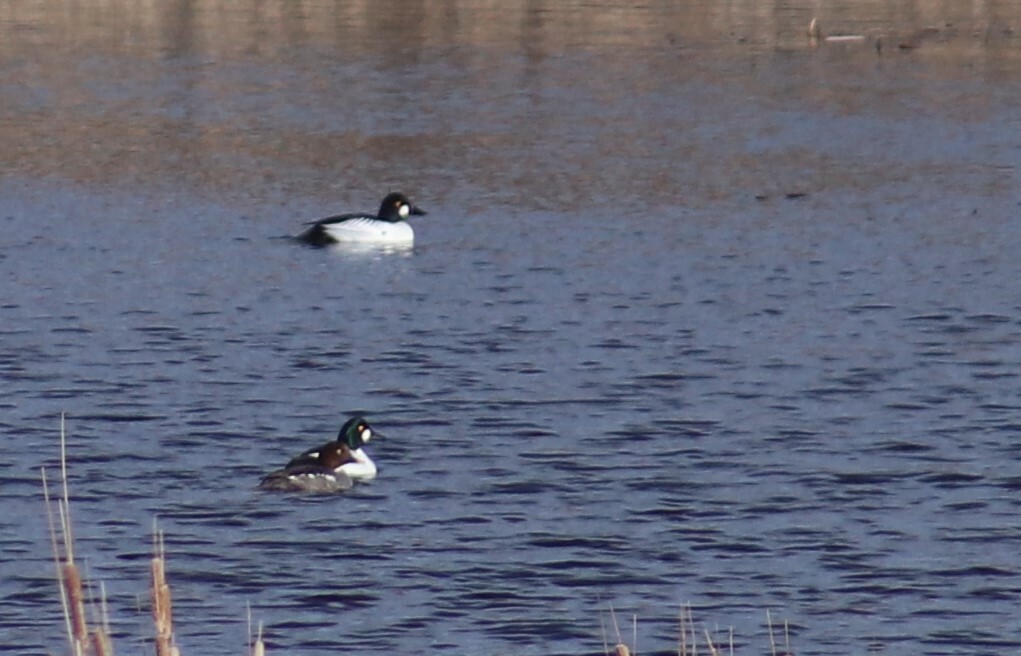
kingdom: Animalia
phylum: Chordata
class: Aves
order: Anseriformes
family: Anatidae
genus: Bucephala
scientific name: Bucephala clangula
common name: Common goldeneye
